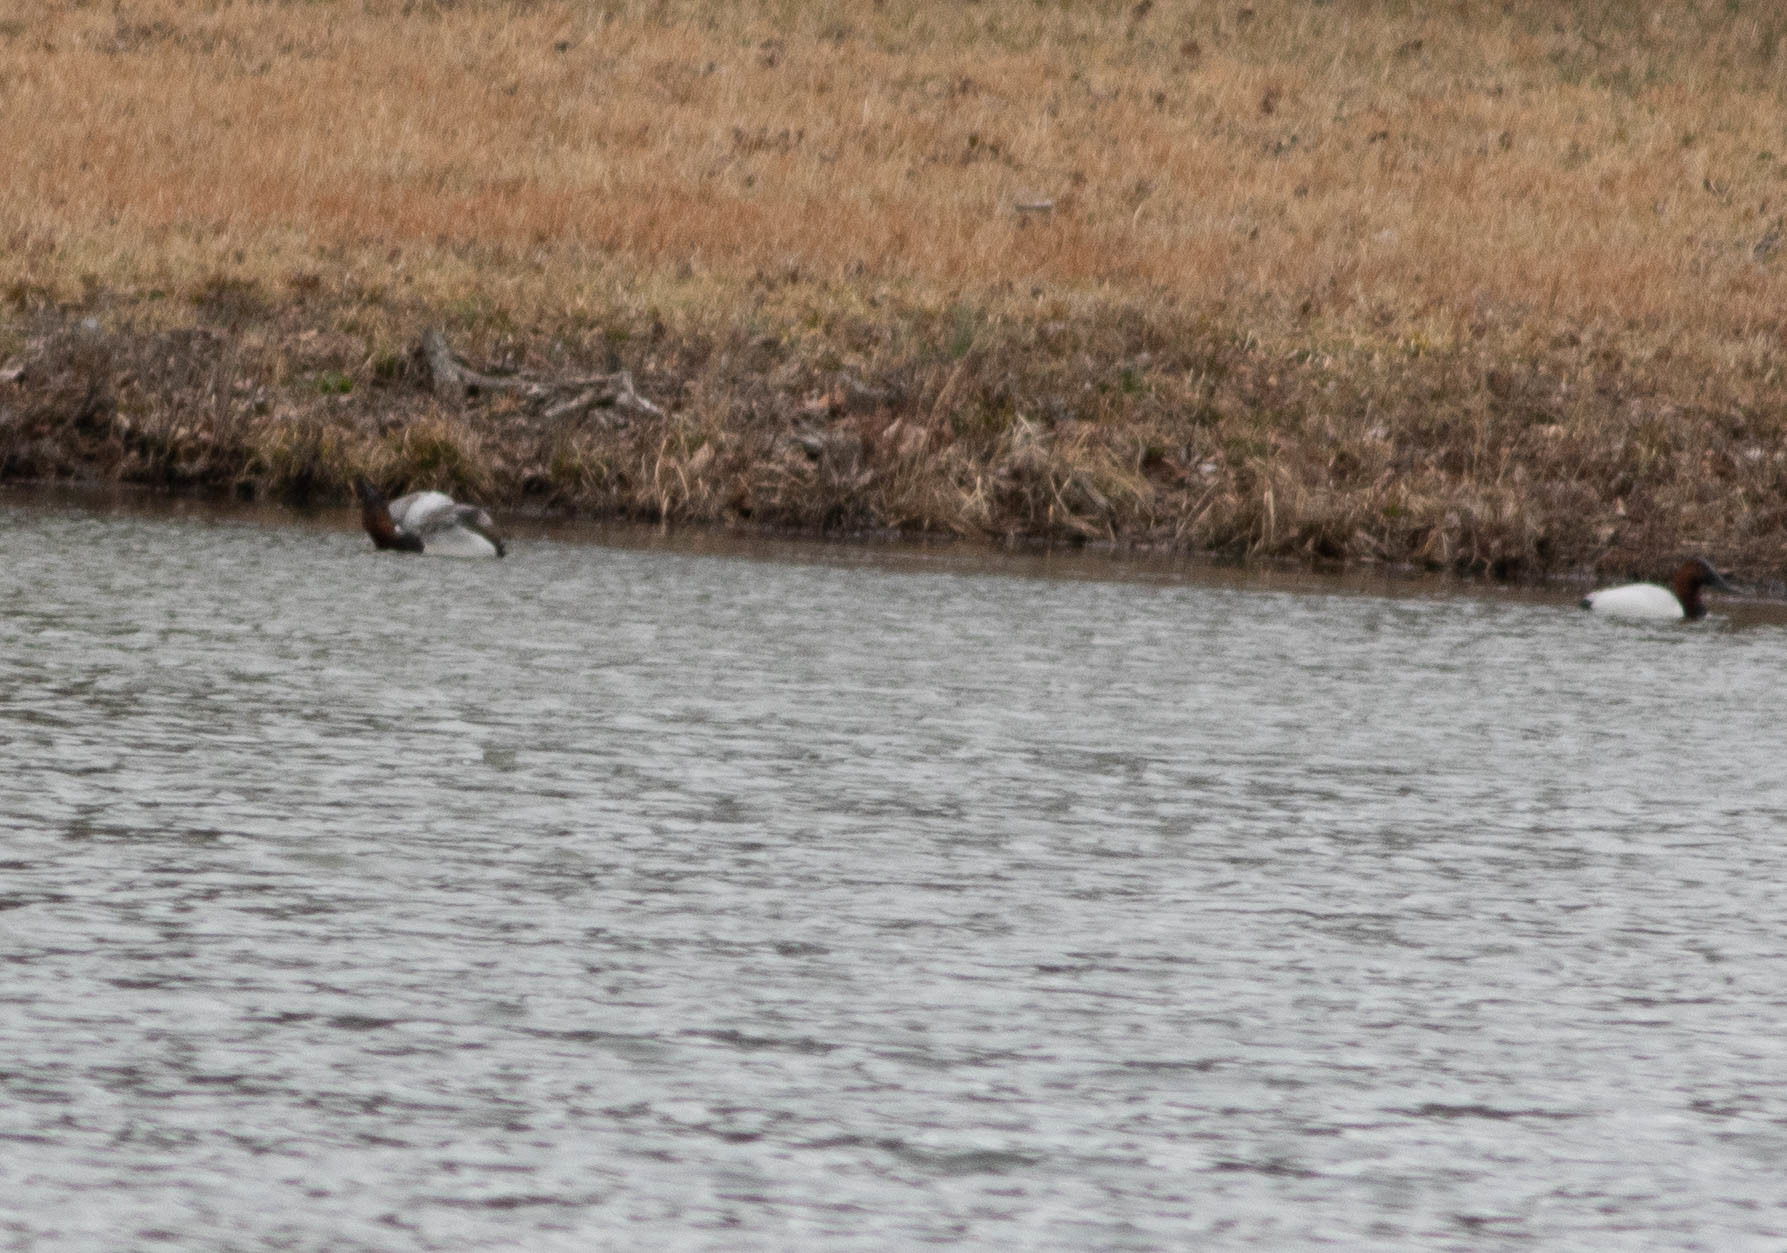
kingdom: Animalia
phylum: Chordata
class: Aves
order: Anseriformes
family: Anatidae
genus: Aythya
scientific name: Aythya valisineria
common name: Canvasback
